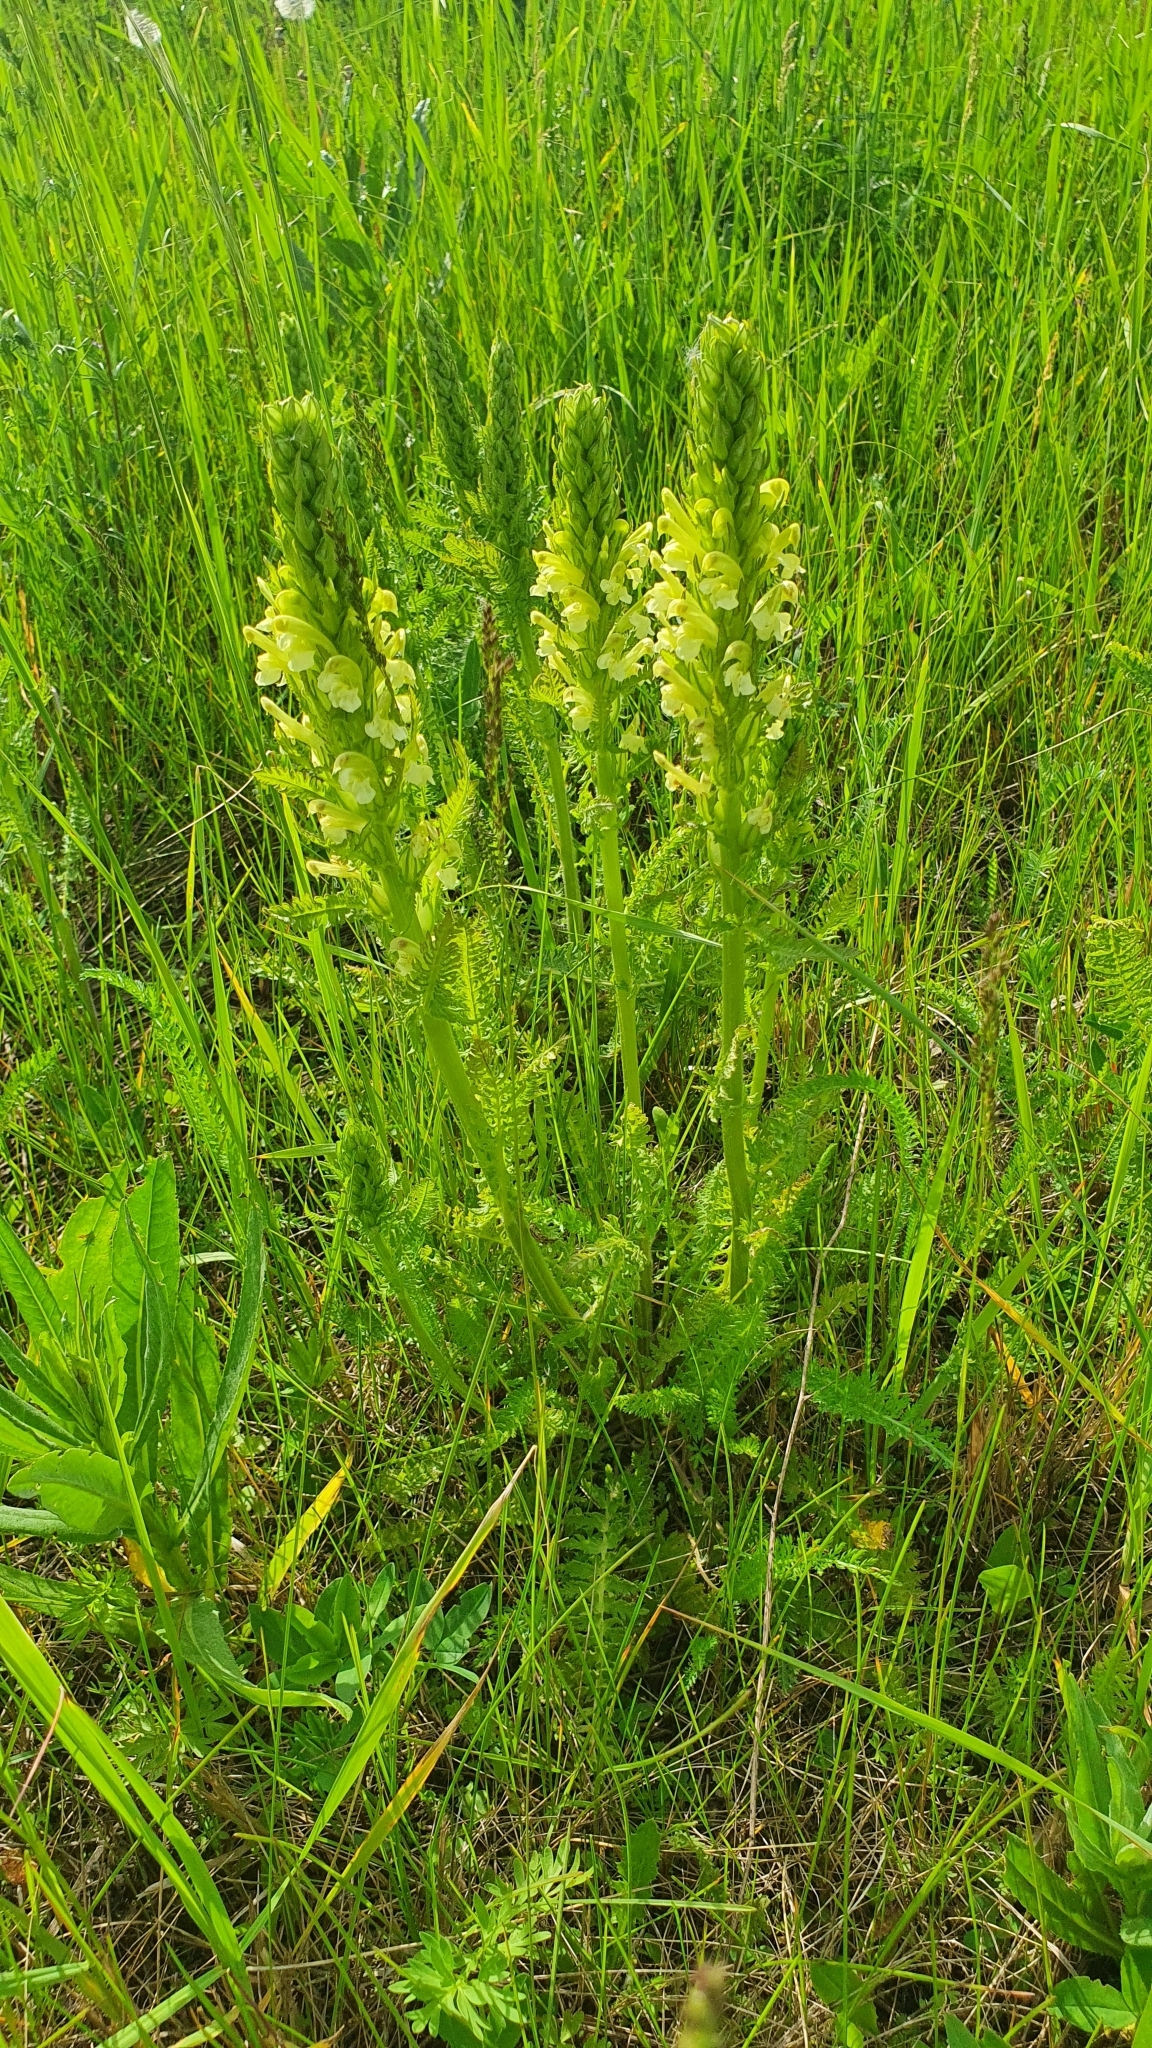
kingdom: Plantae
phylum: Tracheophyta
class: Magnoliopsida
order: Lamiales
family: Orobanchaceae
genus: Pedicularis
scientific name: Pedicularis kaufmannii
